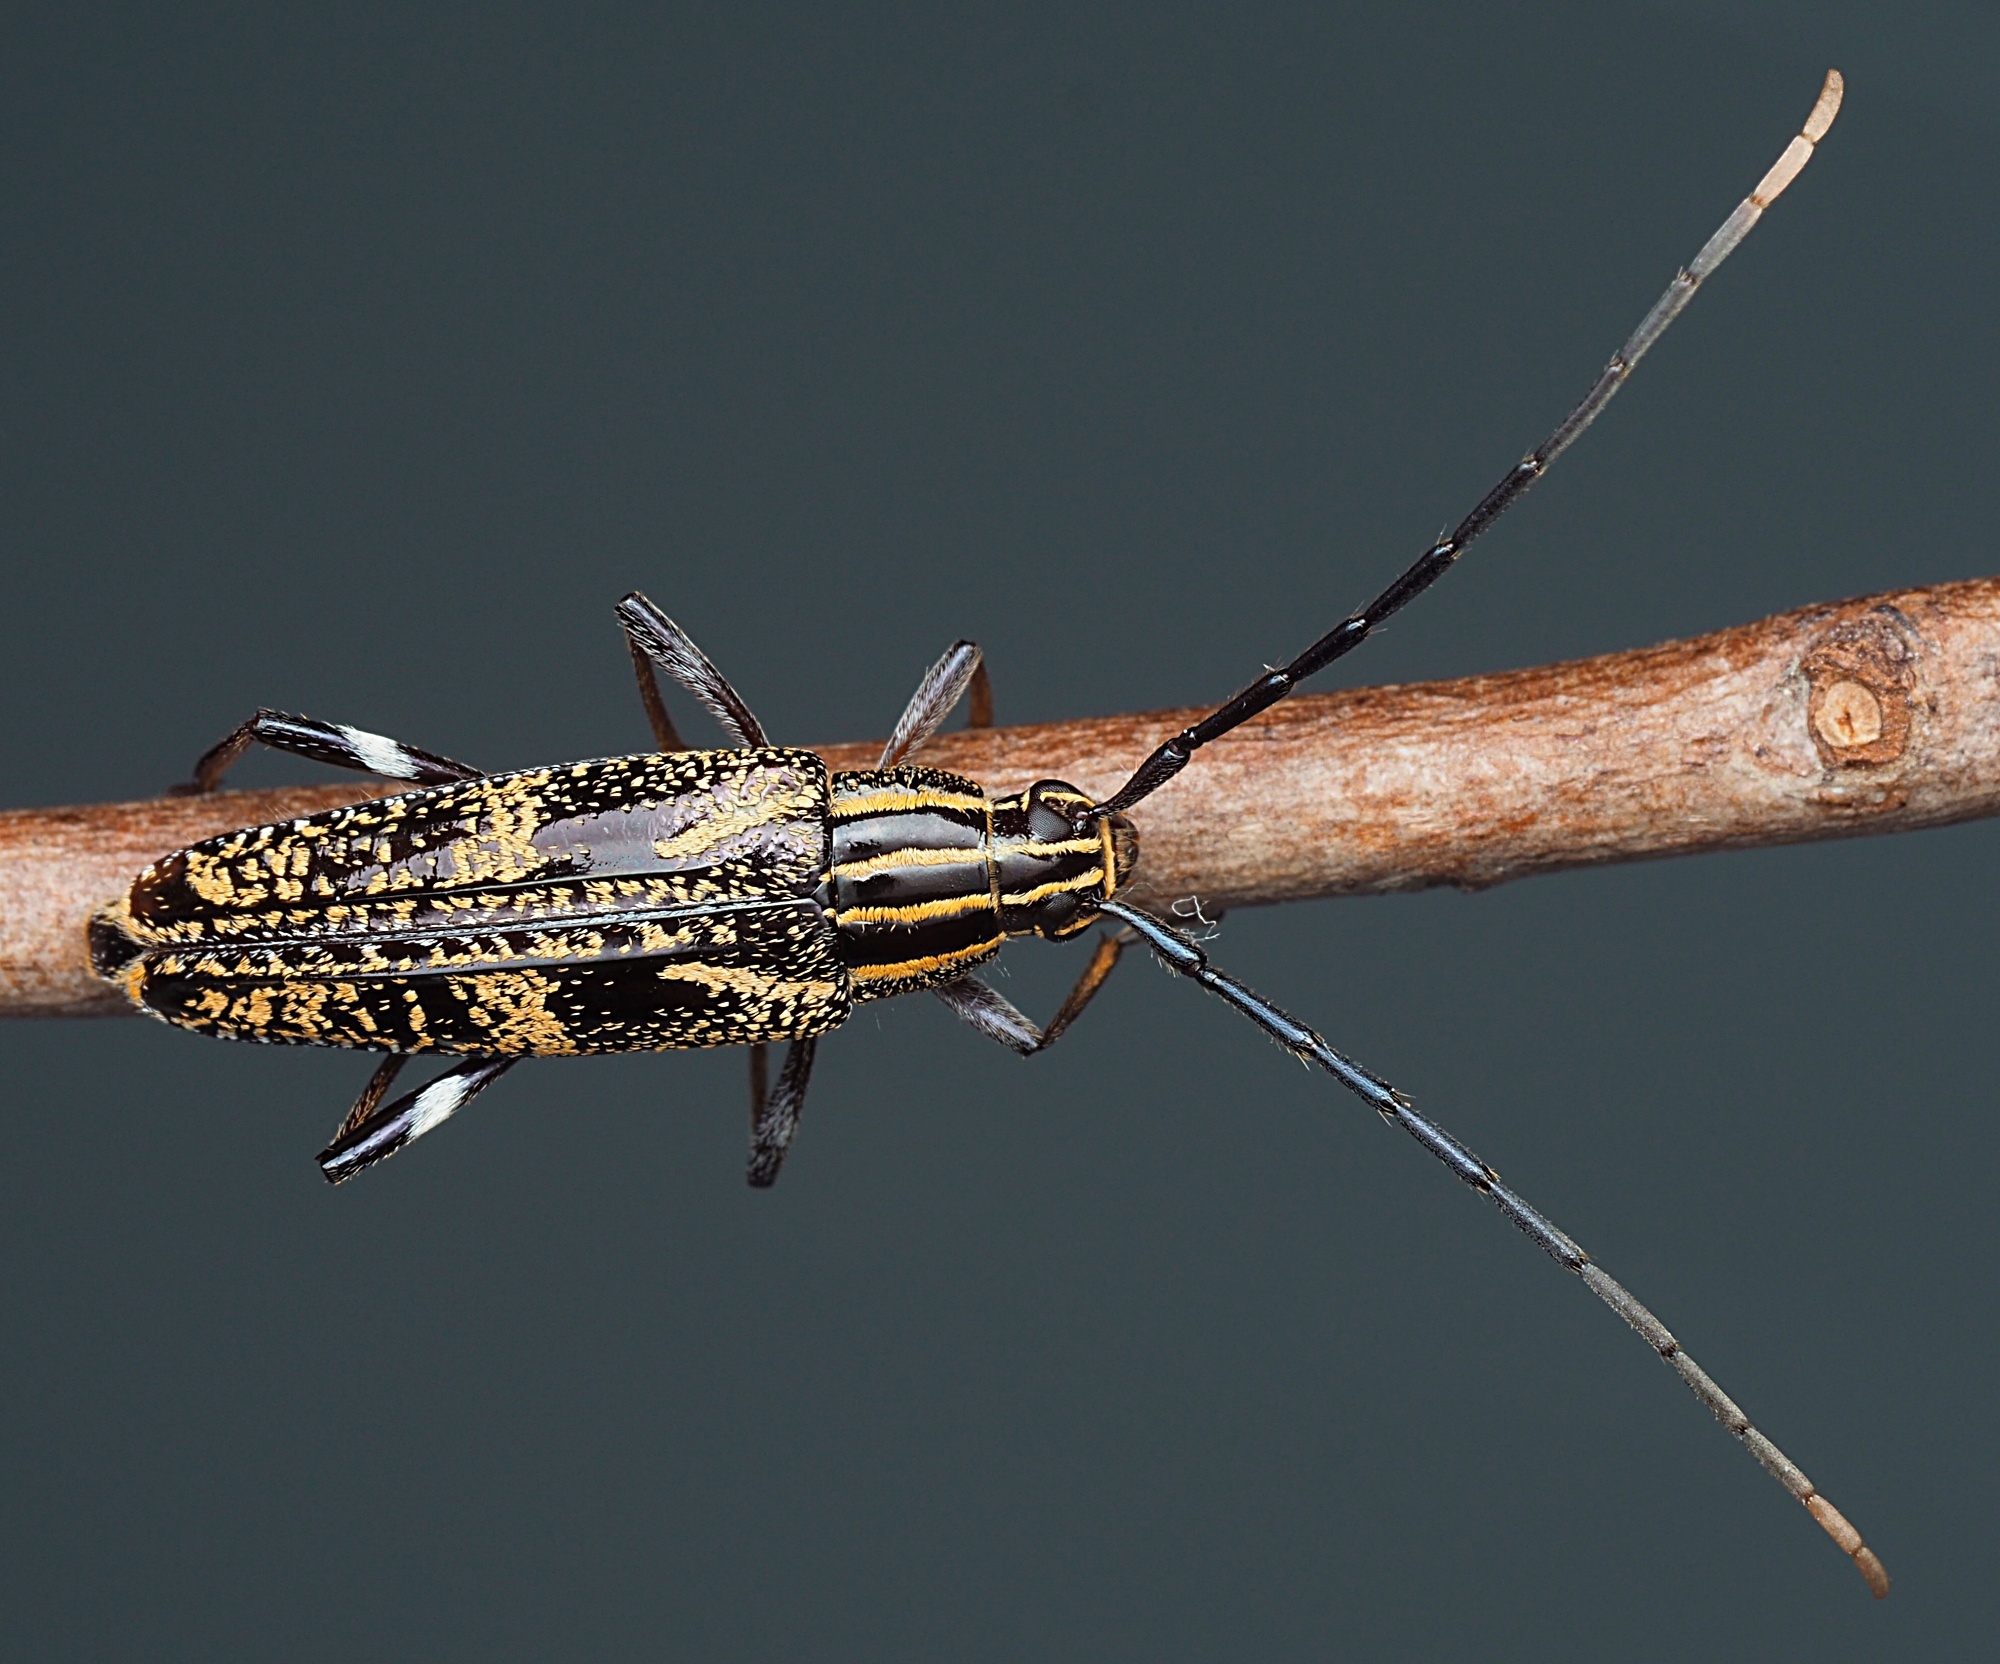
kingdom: Animalia
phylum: Arthropoda
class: Insecta
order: Coleoptera
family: Cerambycidae
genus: Coptomma
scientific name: Coptomma variegatum
